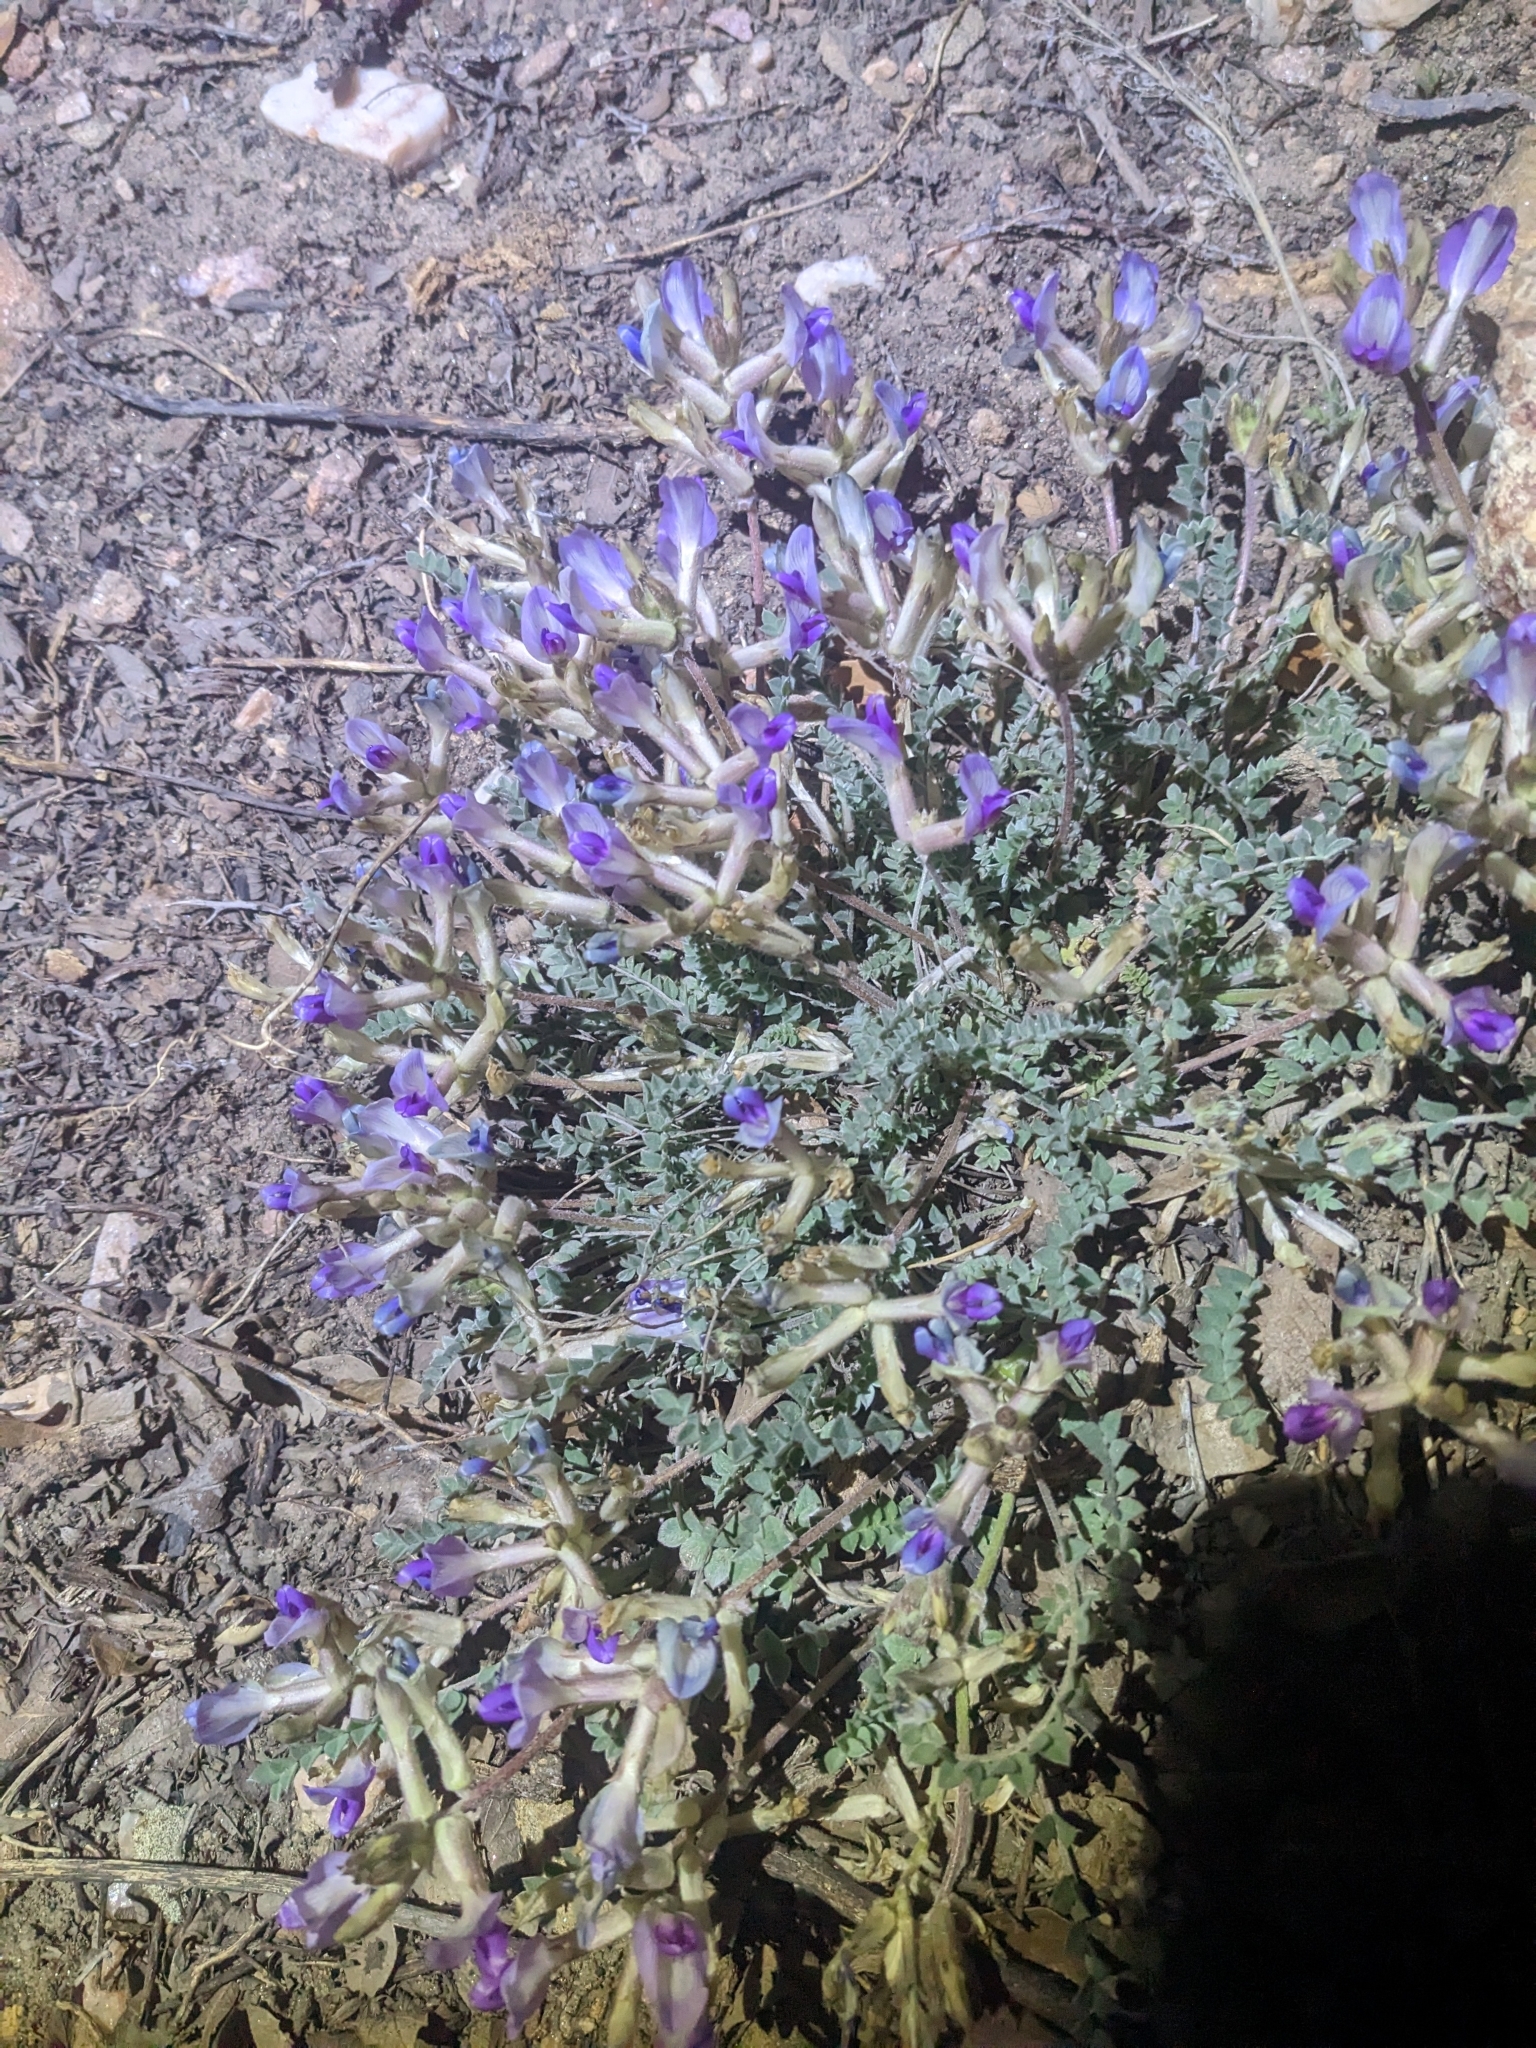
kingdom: Plantae
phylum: Tracheophyta
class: Magnoliopsida
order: Fabales
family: Fabaceae
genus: Astragalus
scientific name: Astragalus amphioxys
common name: Crescent milk-vetch
